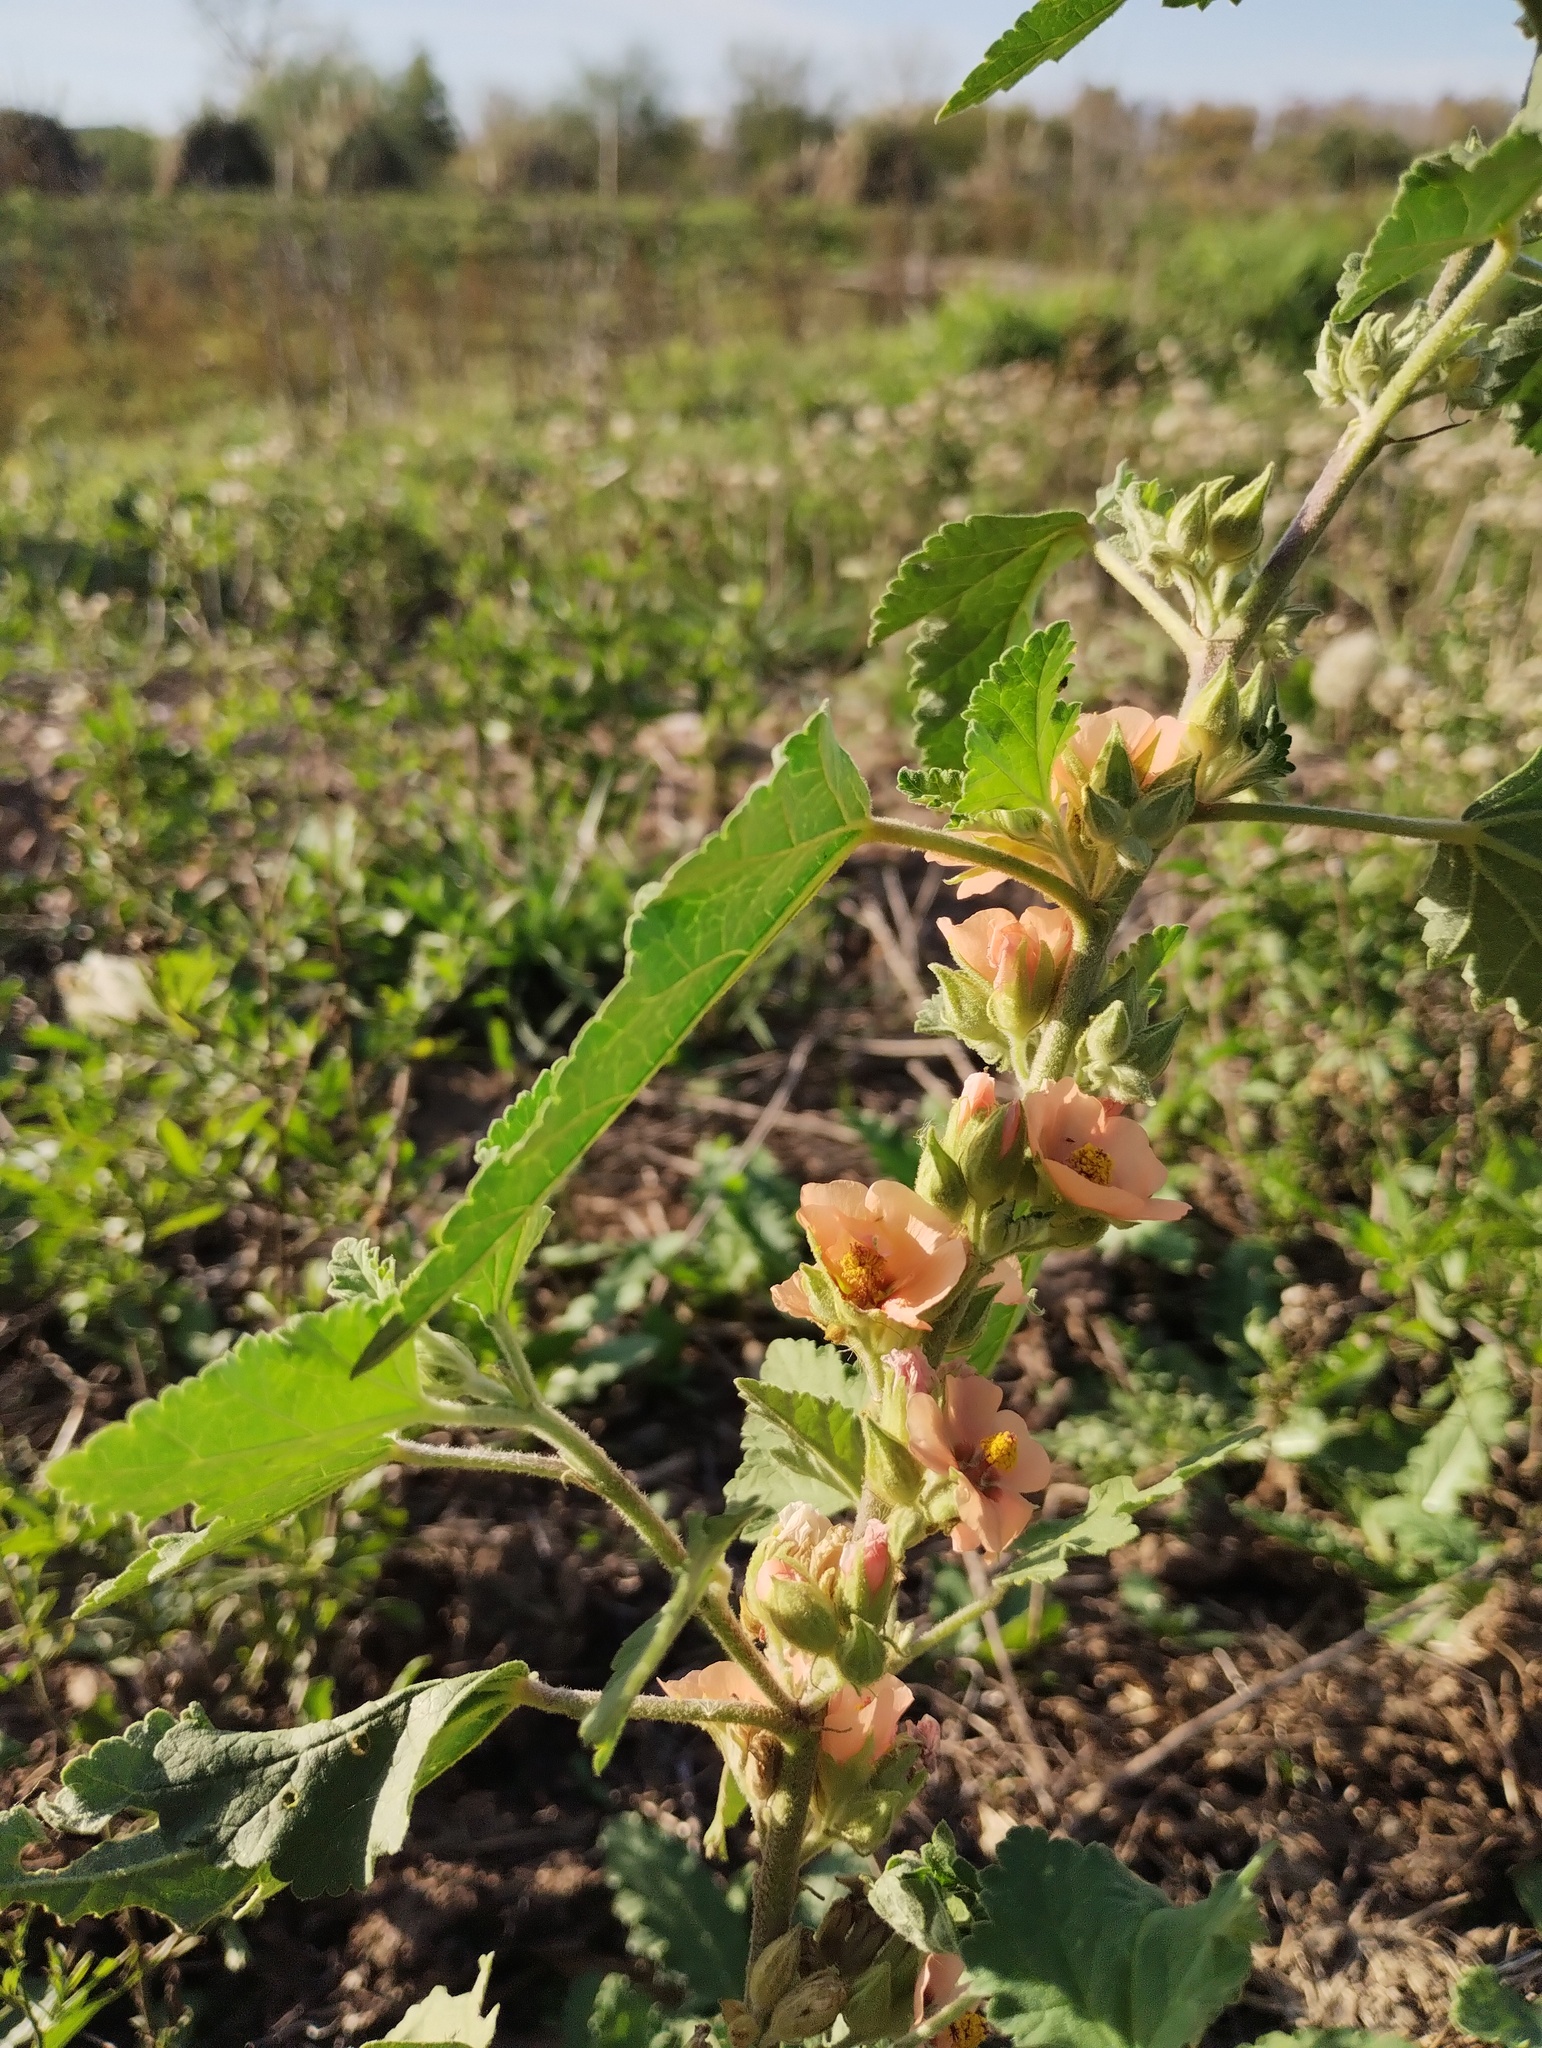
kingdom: Plantae
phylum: Tracheophyta
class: Magnoliopsida
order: Malvales
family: Malvaceae
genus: Sphaeralcea
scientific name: Sphaeralcea bonariensis
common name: Latin globemallow
